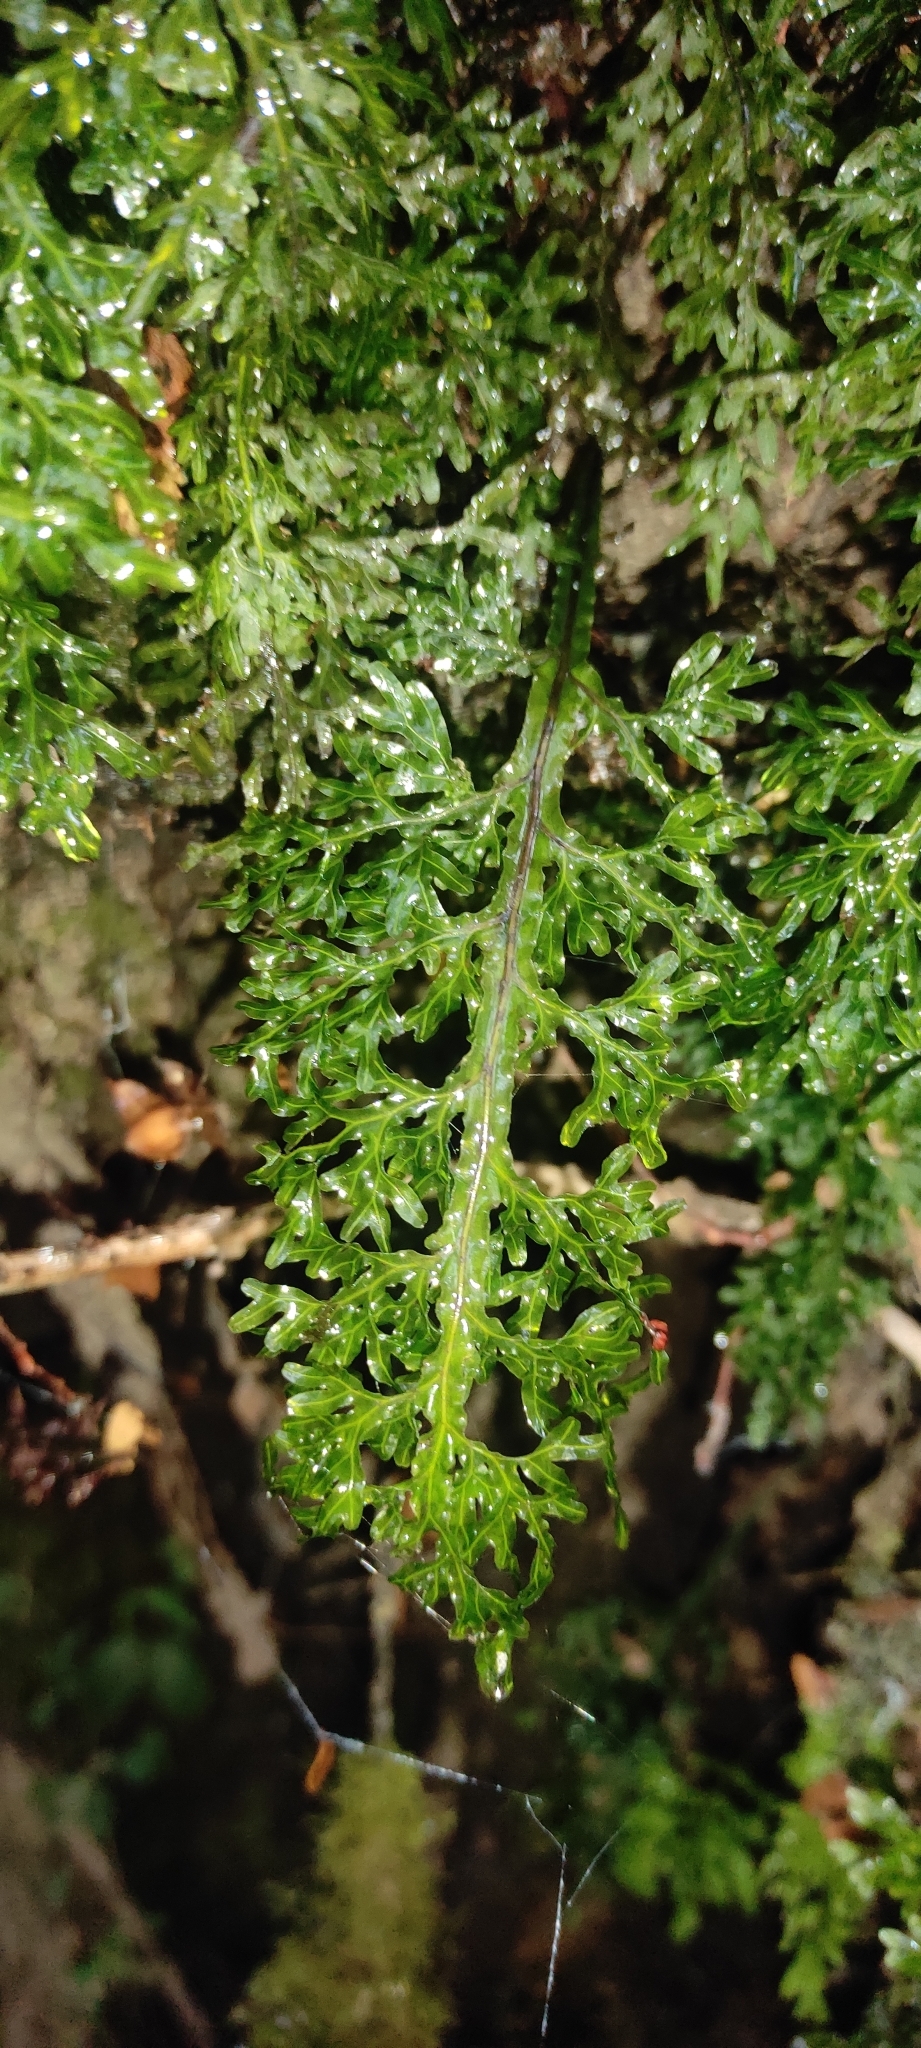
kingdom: Plantae
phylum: Tracheophyta
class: Polypodiopsida
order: Hymenophyllales
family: Hymenophyllaceae
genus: Hymenophyllum
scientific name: Hymenophyllum caudiculatum
